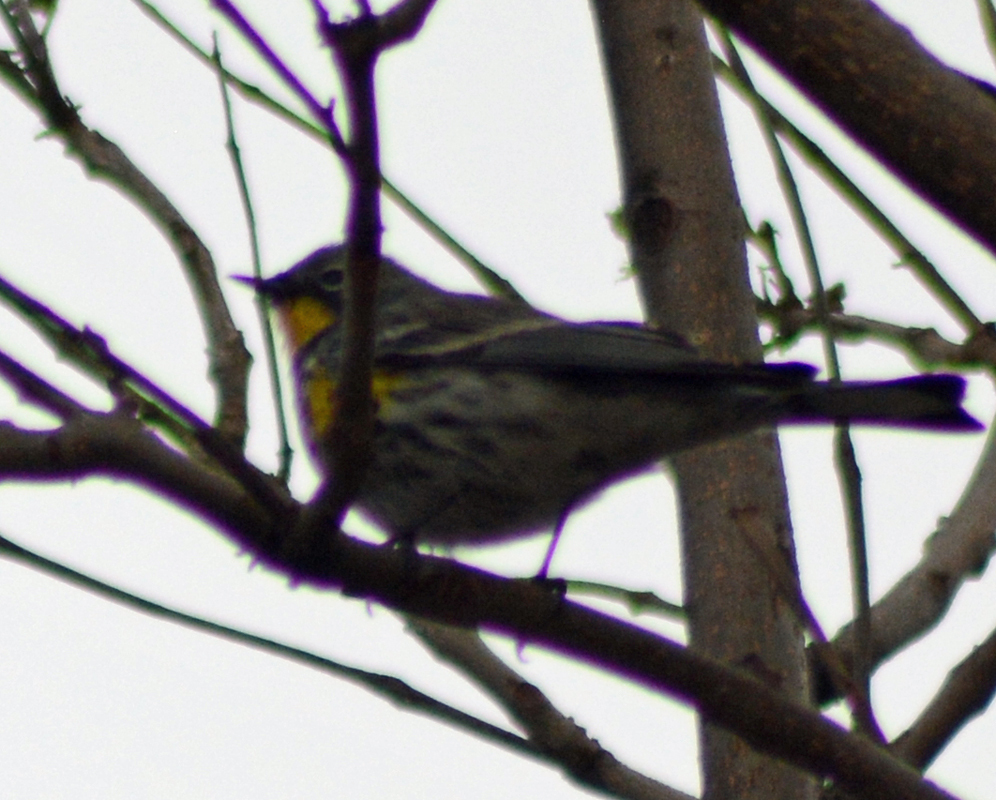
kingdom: Animalia
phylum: Chordata
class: Aves
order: Passeriformes
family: Parulidae
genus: Setophaga
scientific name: Setophaga auduboni
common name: Audubon's warbler
